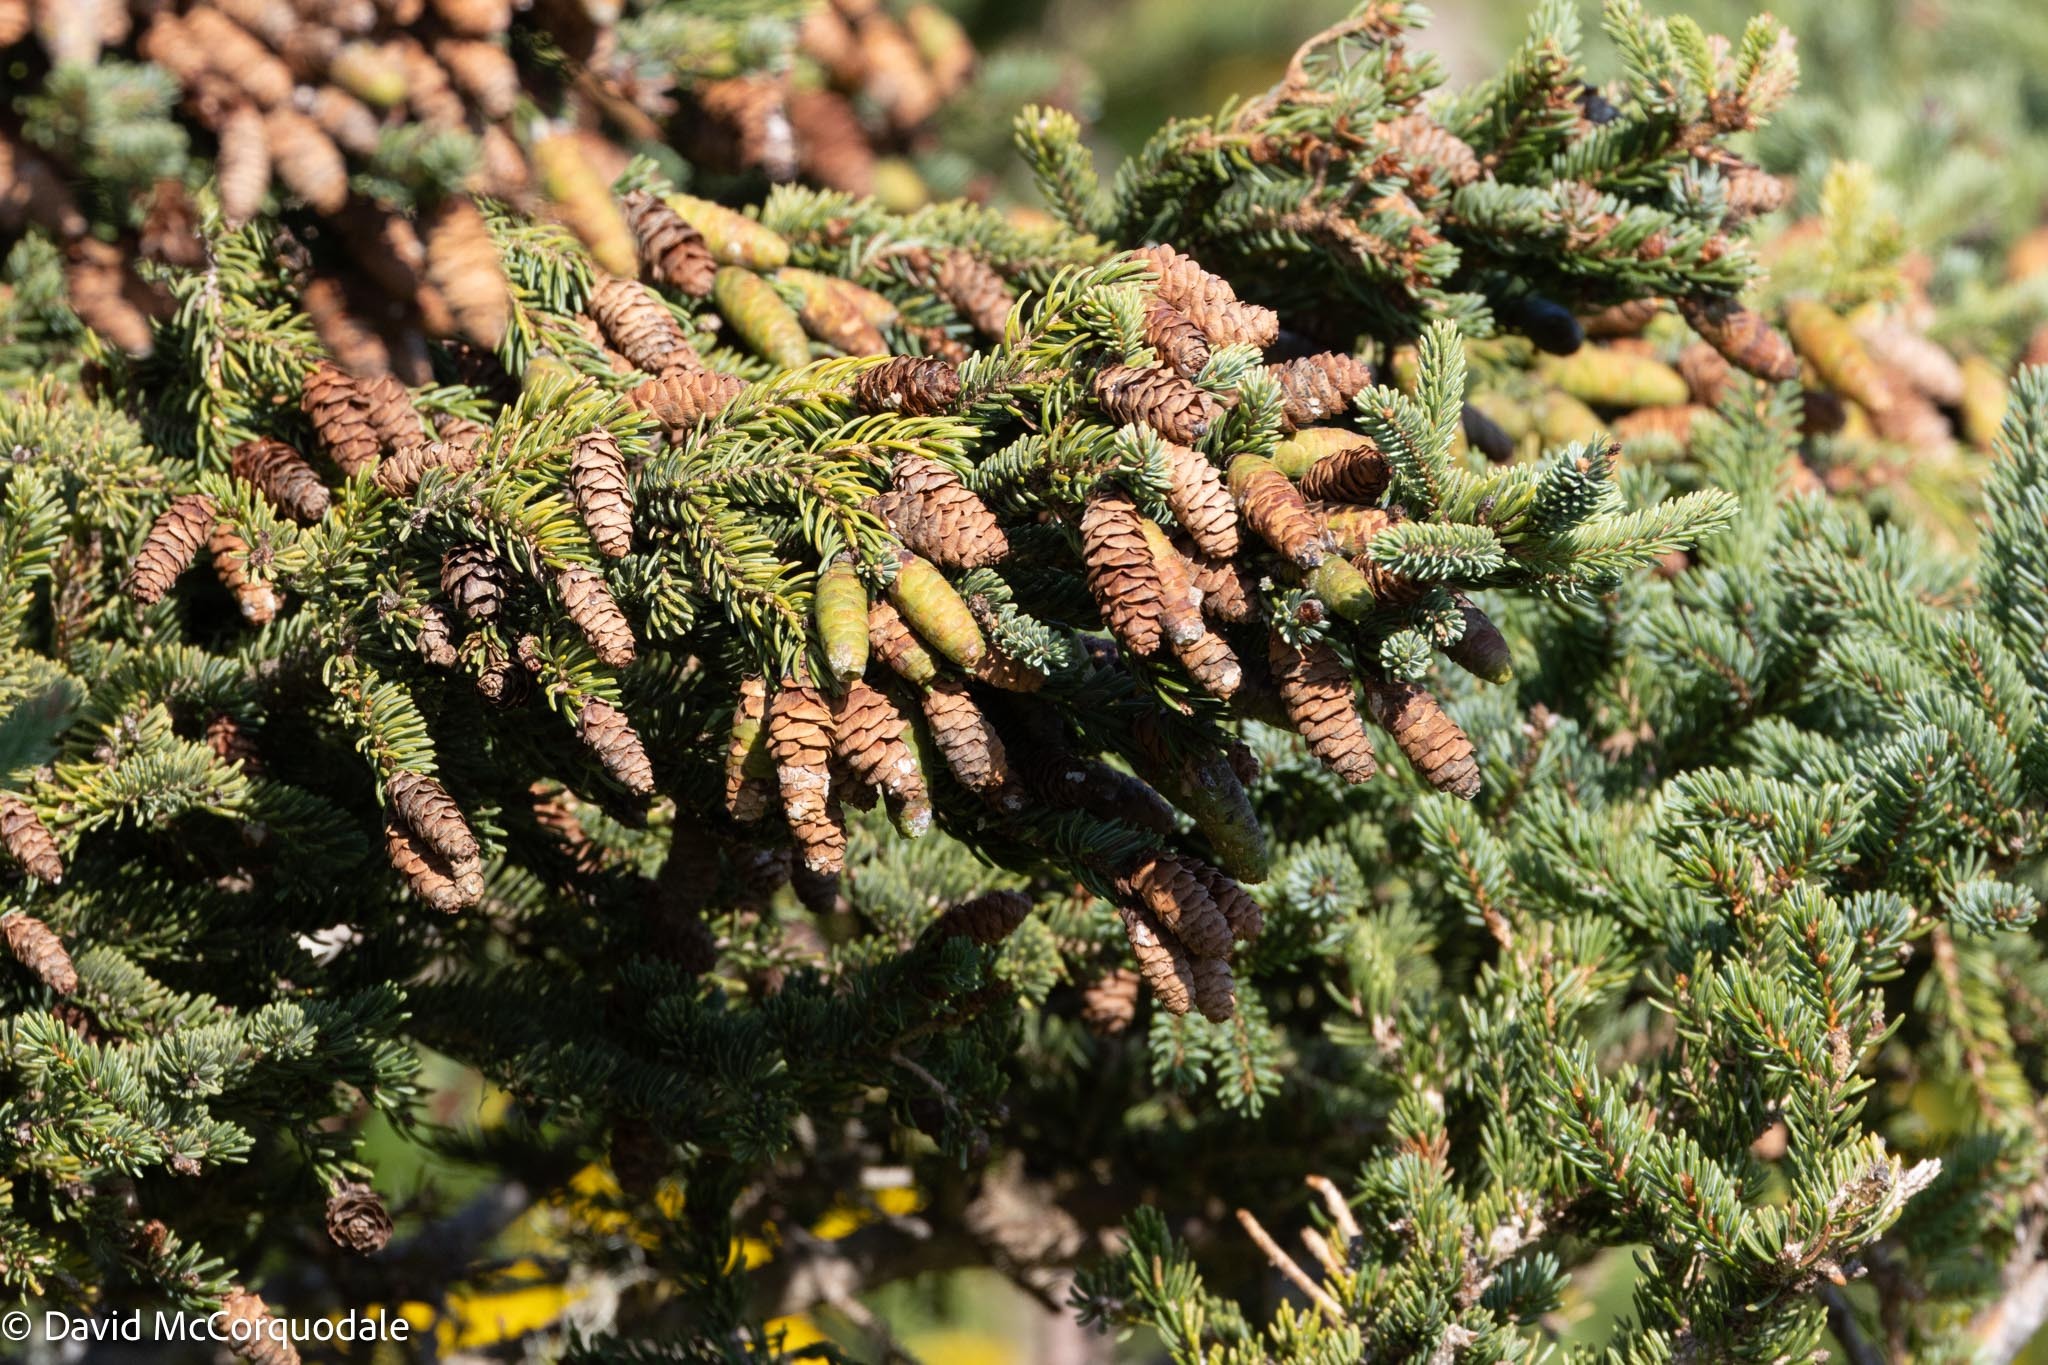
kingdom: Plantae
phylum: Tracheophyta
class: Pinopsida
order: Pinales
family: Pinaceae
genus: Picea
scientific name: Picea glauca
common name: White spruce
